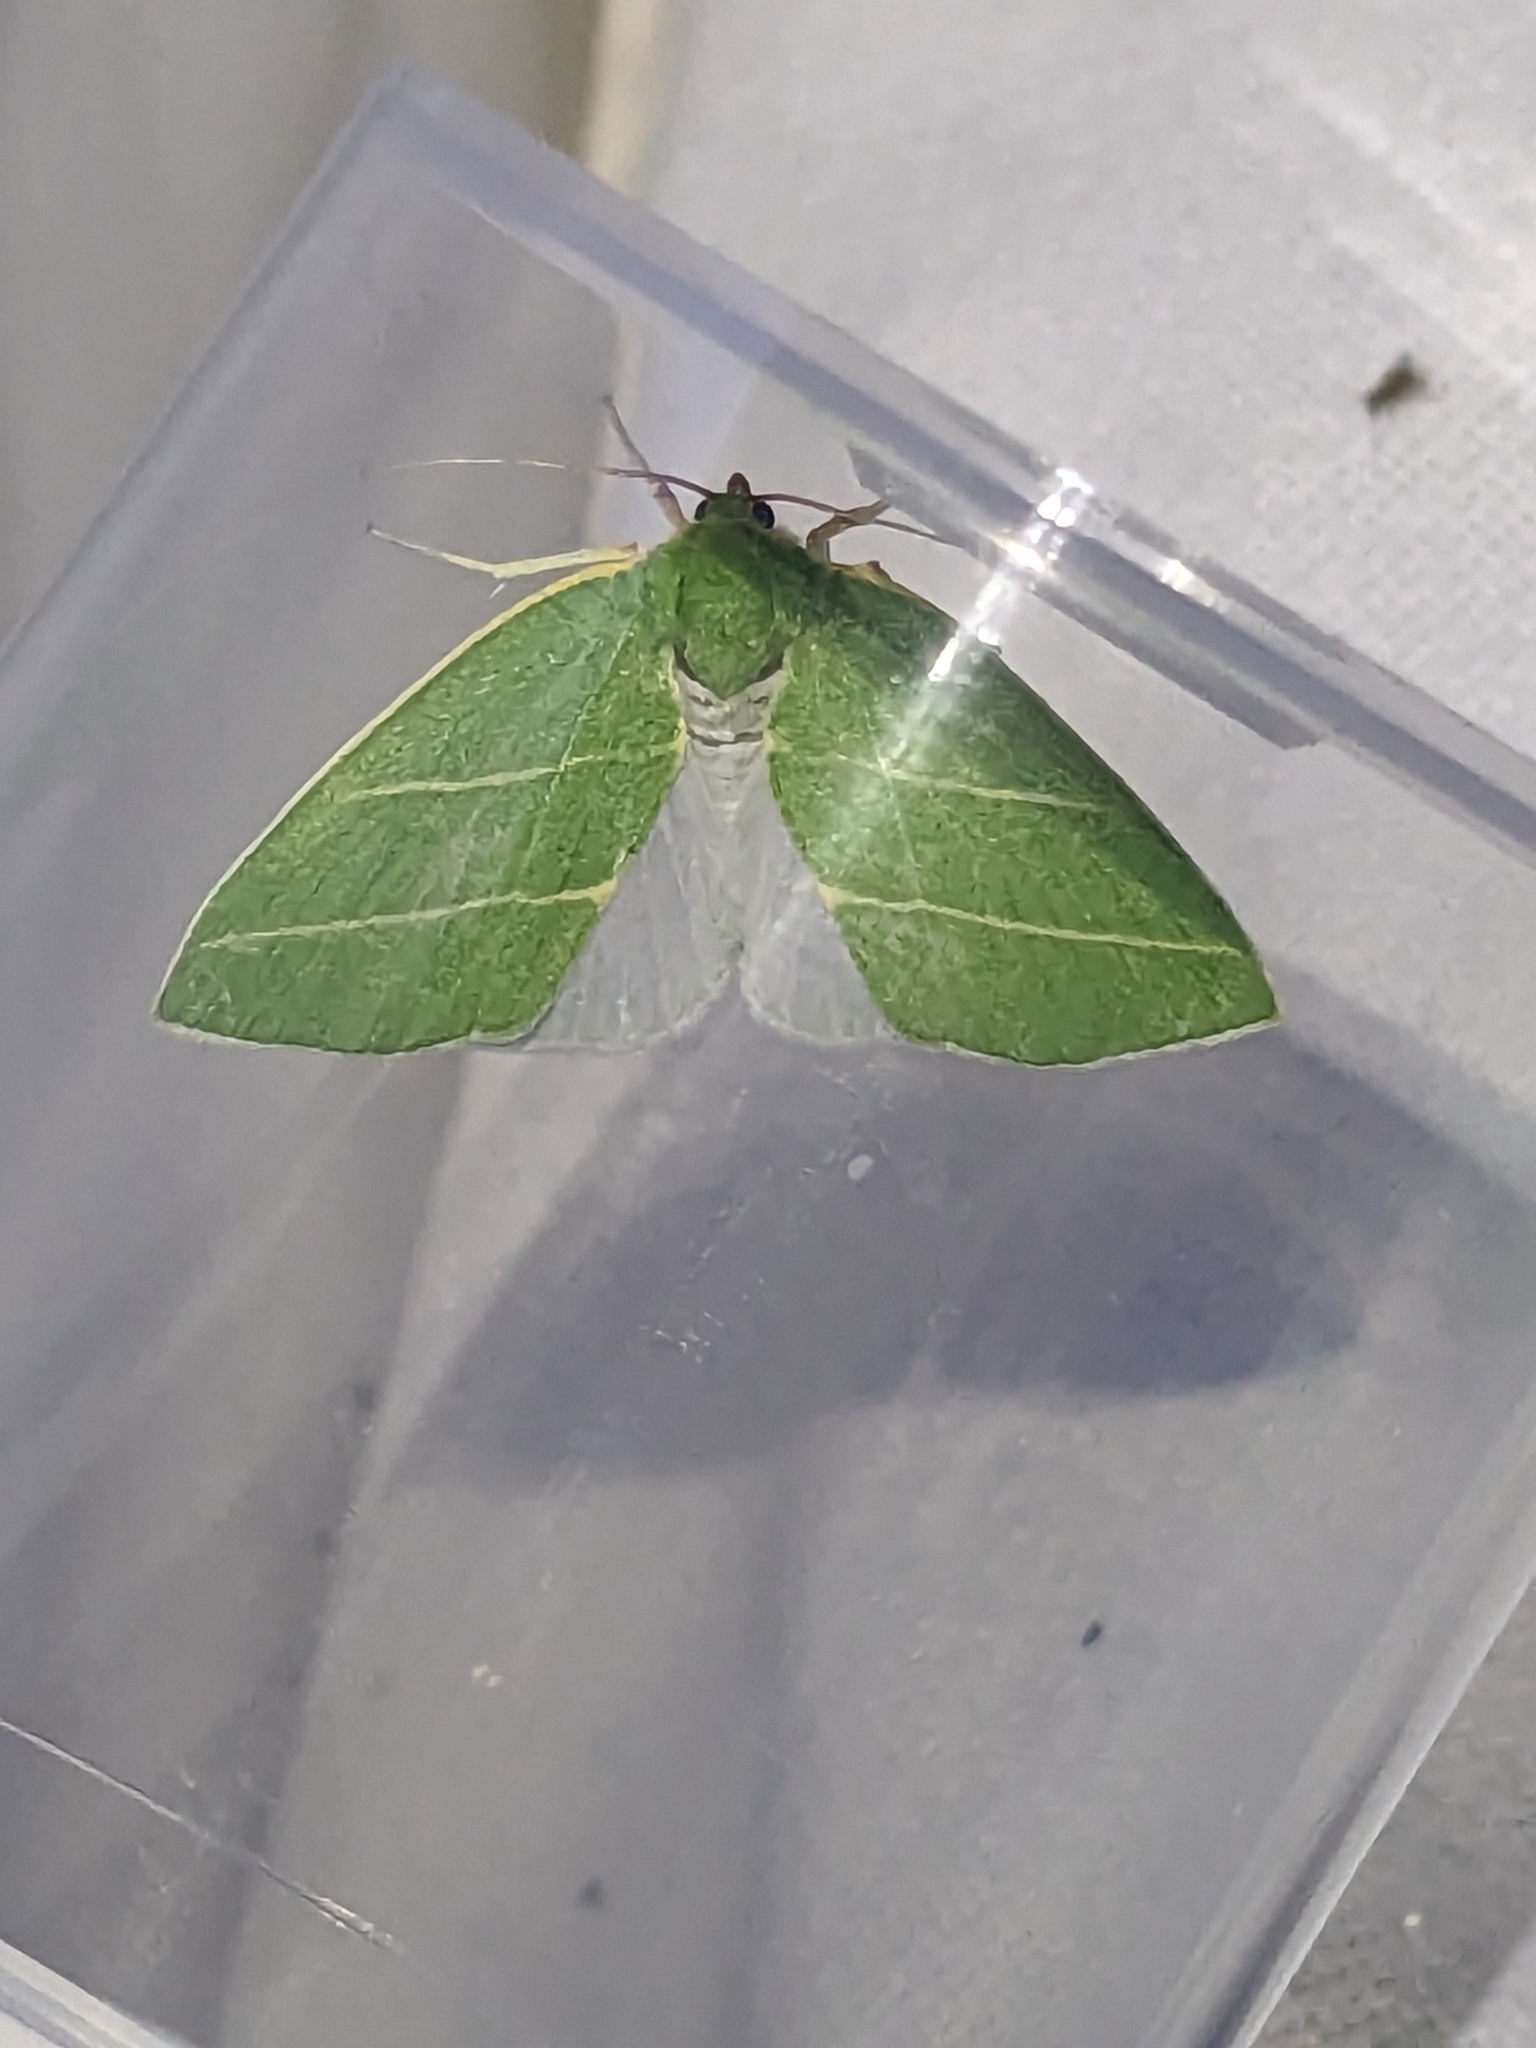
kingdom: Animalia
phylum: Arthropoda
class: Insecta
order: Lepidoptera
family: Nolidae
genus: Bena
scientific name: Bena bicolorana
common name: Scarce silver-lines
